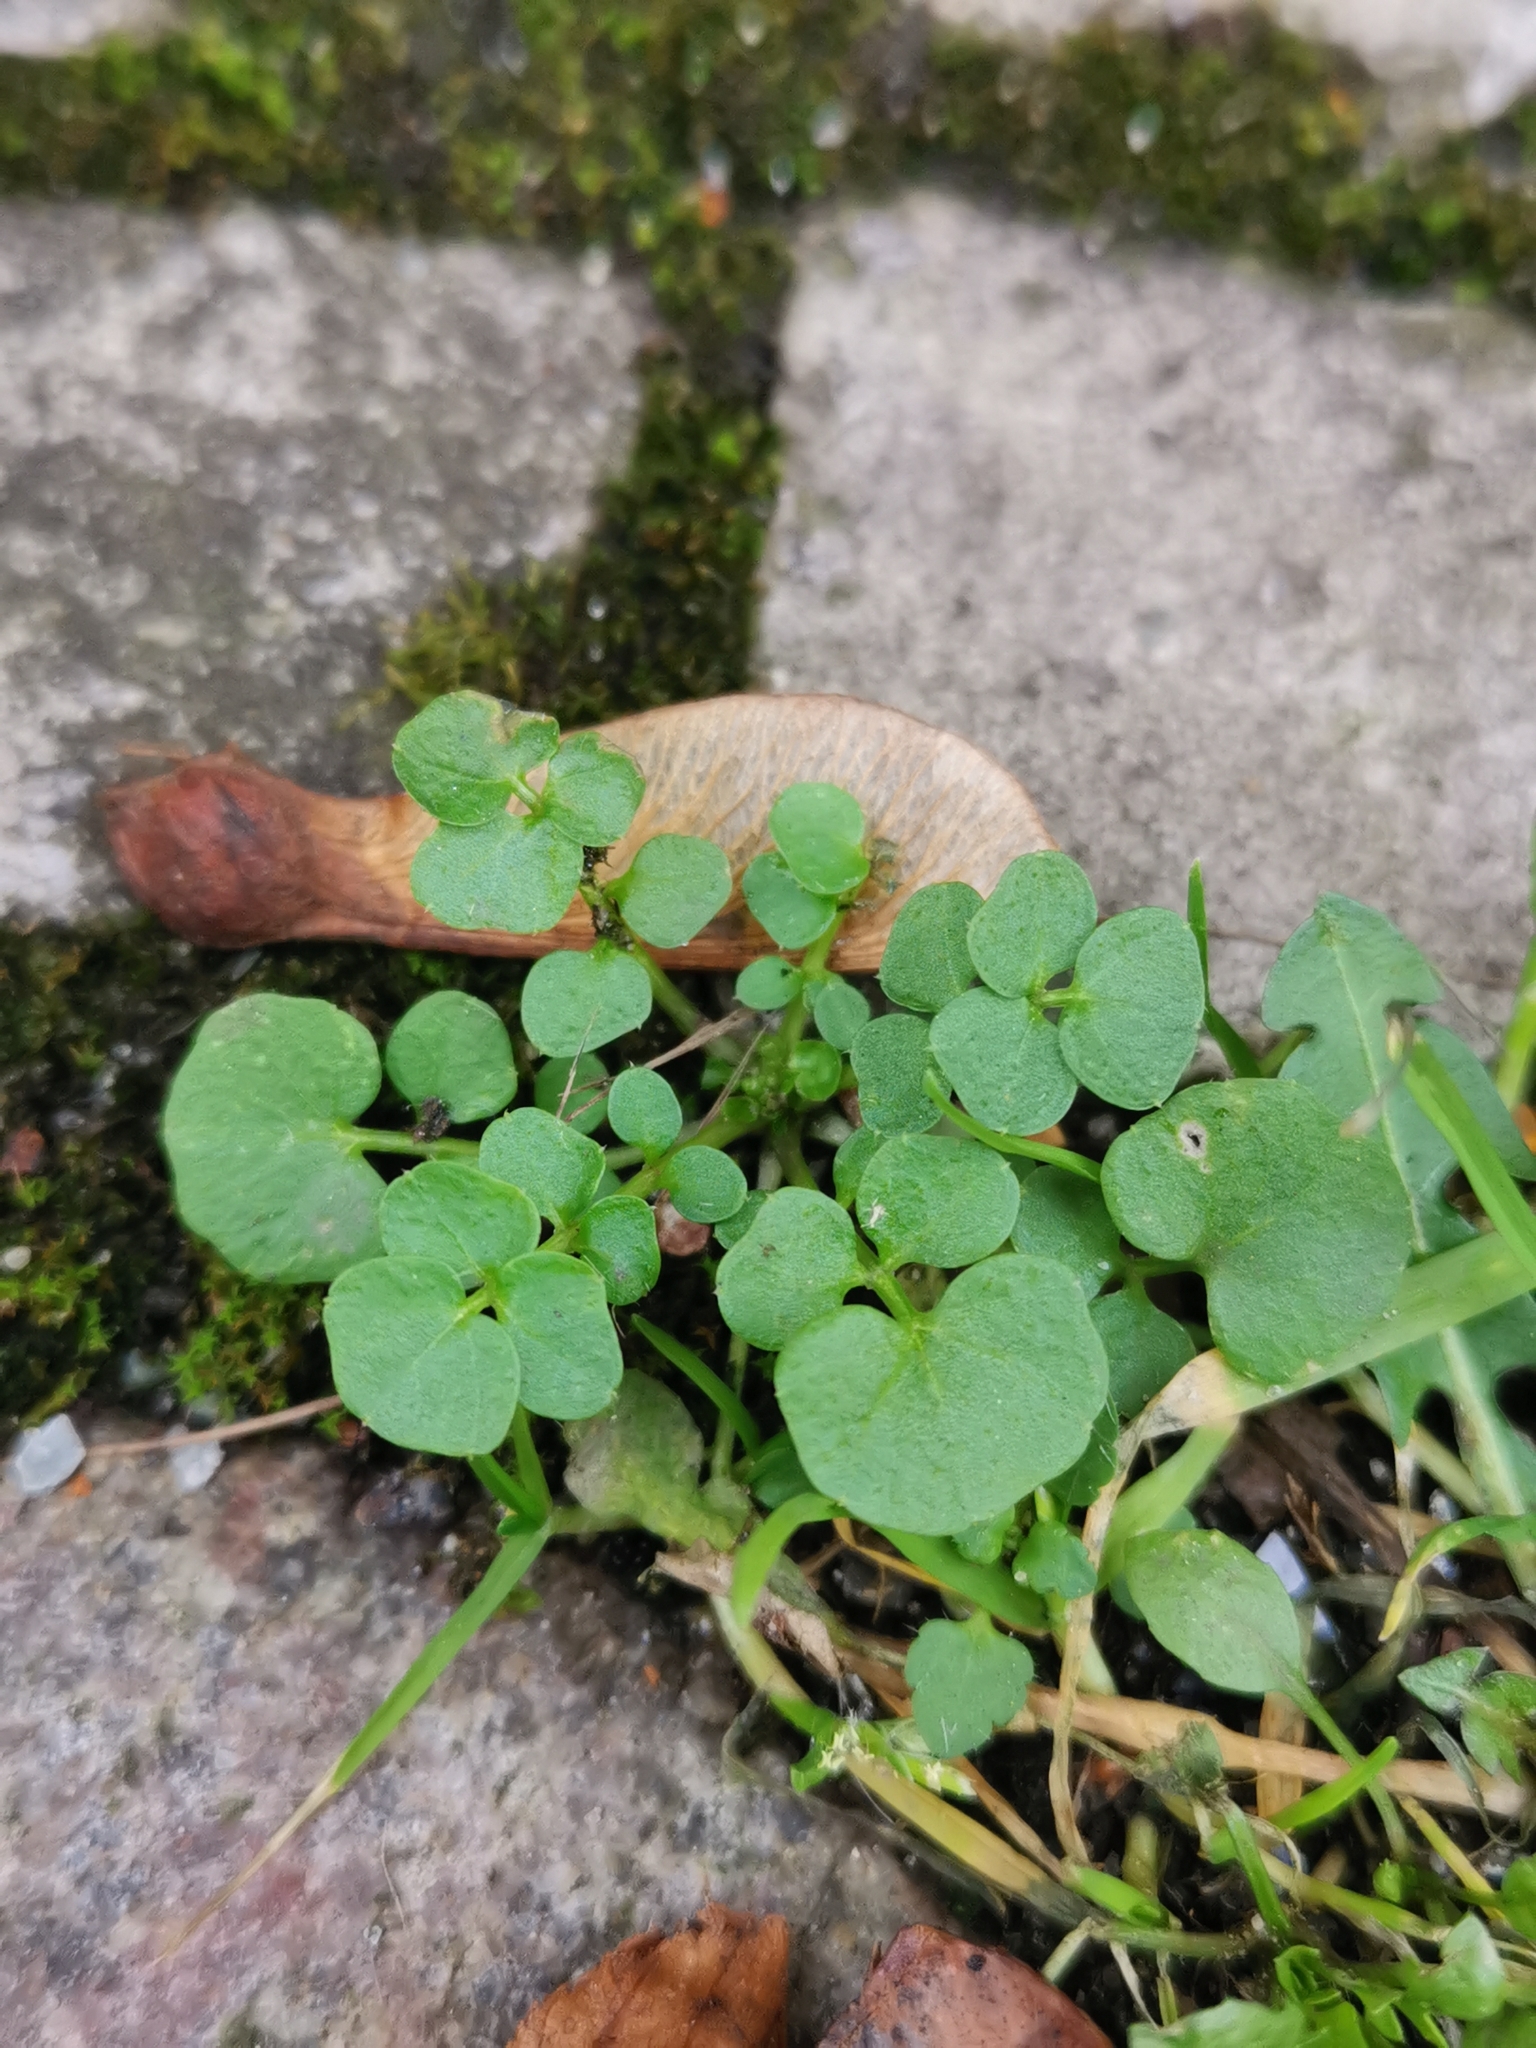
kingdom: Plantae
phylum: Tracheophyta
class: Magnoliopsida
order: Brassicales
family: Brassicaceae
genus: Cardamine
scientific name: Cardamine hirsuta
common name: Hairy bittercress
